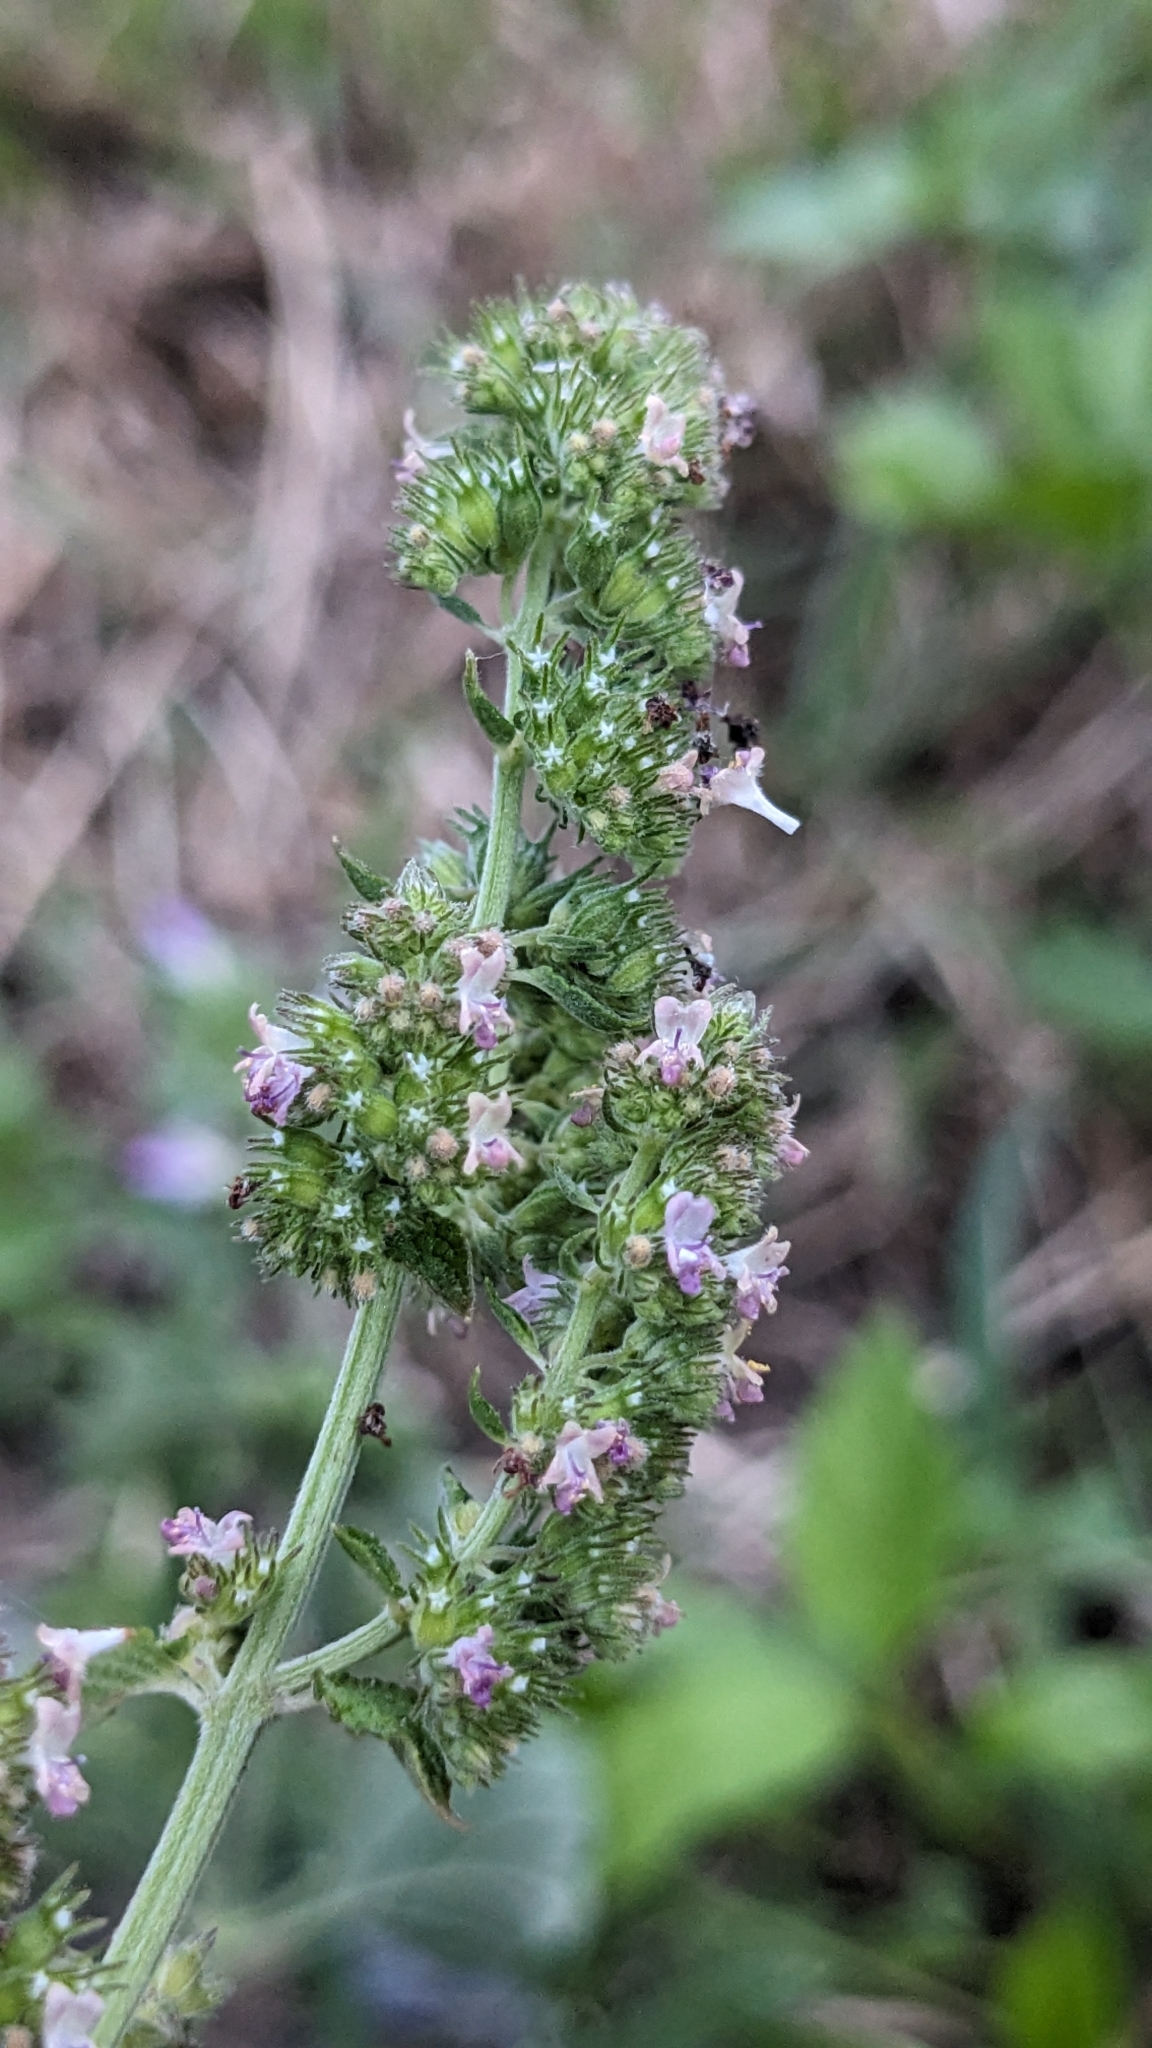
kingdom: Plantae
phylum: Tracheophyta
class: Magnoliopsida
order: Lamiales
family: Lamiaceae
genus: Mesosphaerum
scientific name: Mesosphaerum pectinatum
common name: Comb hyptis
